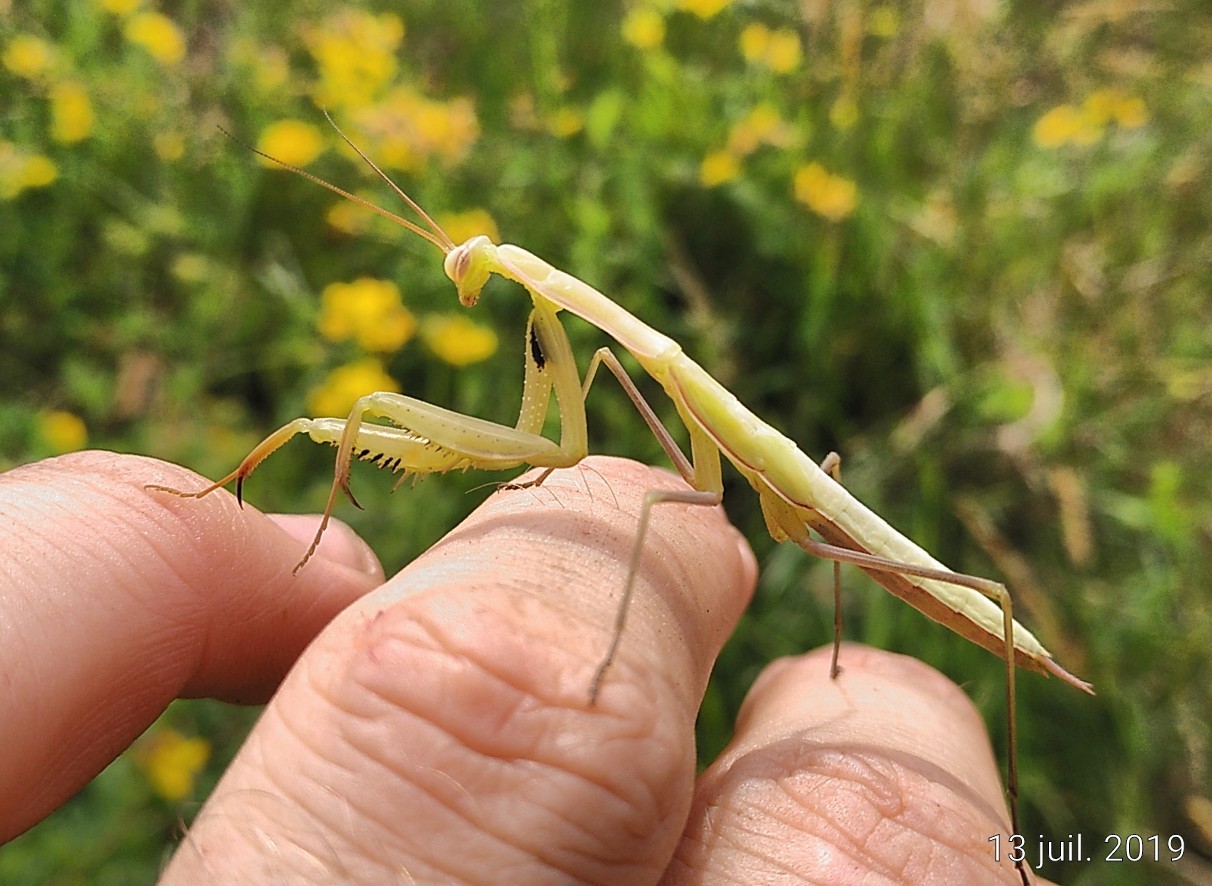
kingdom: Animalia
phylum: Arthropoda
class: Insecta
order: Mantodea
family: Mantidae
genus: Mantis
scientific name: Mantis religiosa
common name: Praying mantis
